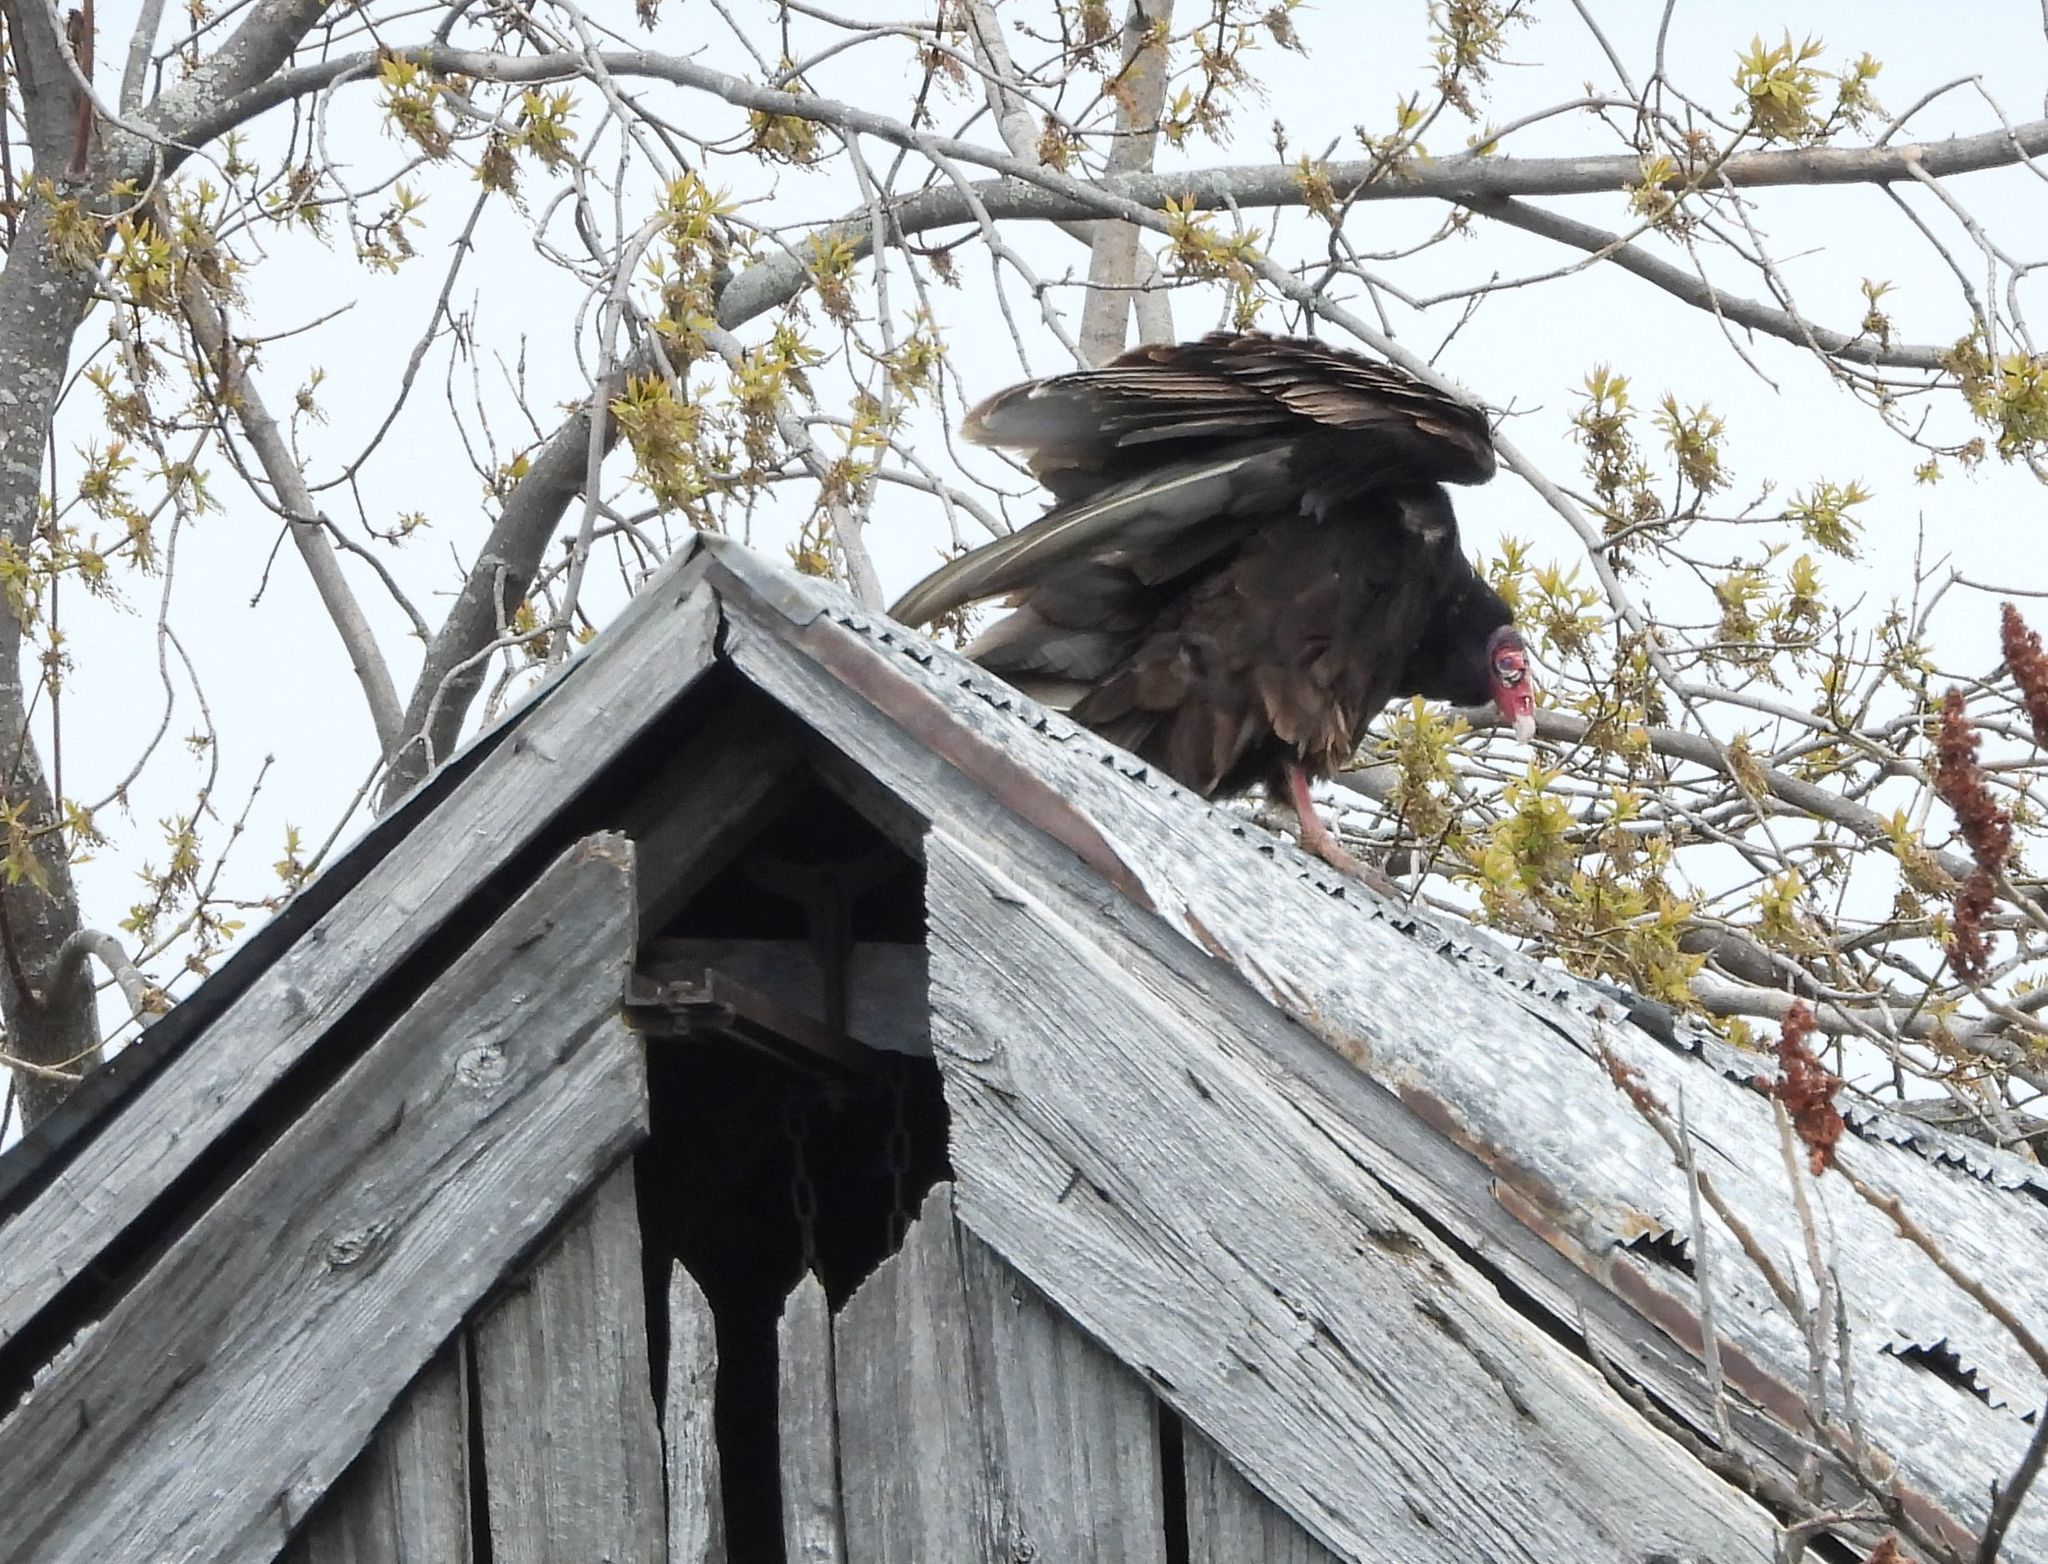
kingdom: Animalia
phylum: Chordata
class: Aves
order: Accipitriformes
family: Cathartidae
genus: Cathartes
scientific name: Cathartes aura
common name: Turkey vulture
